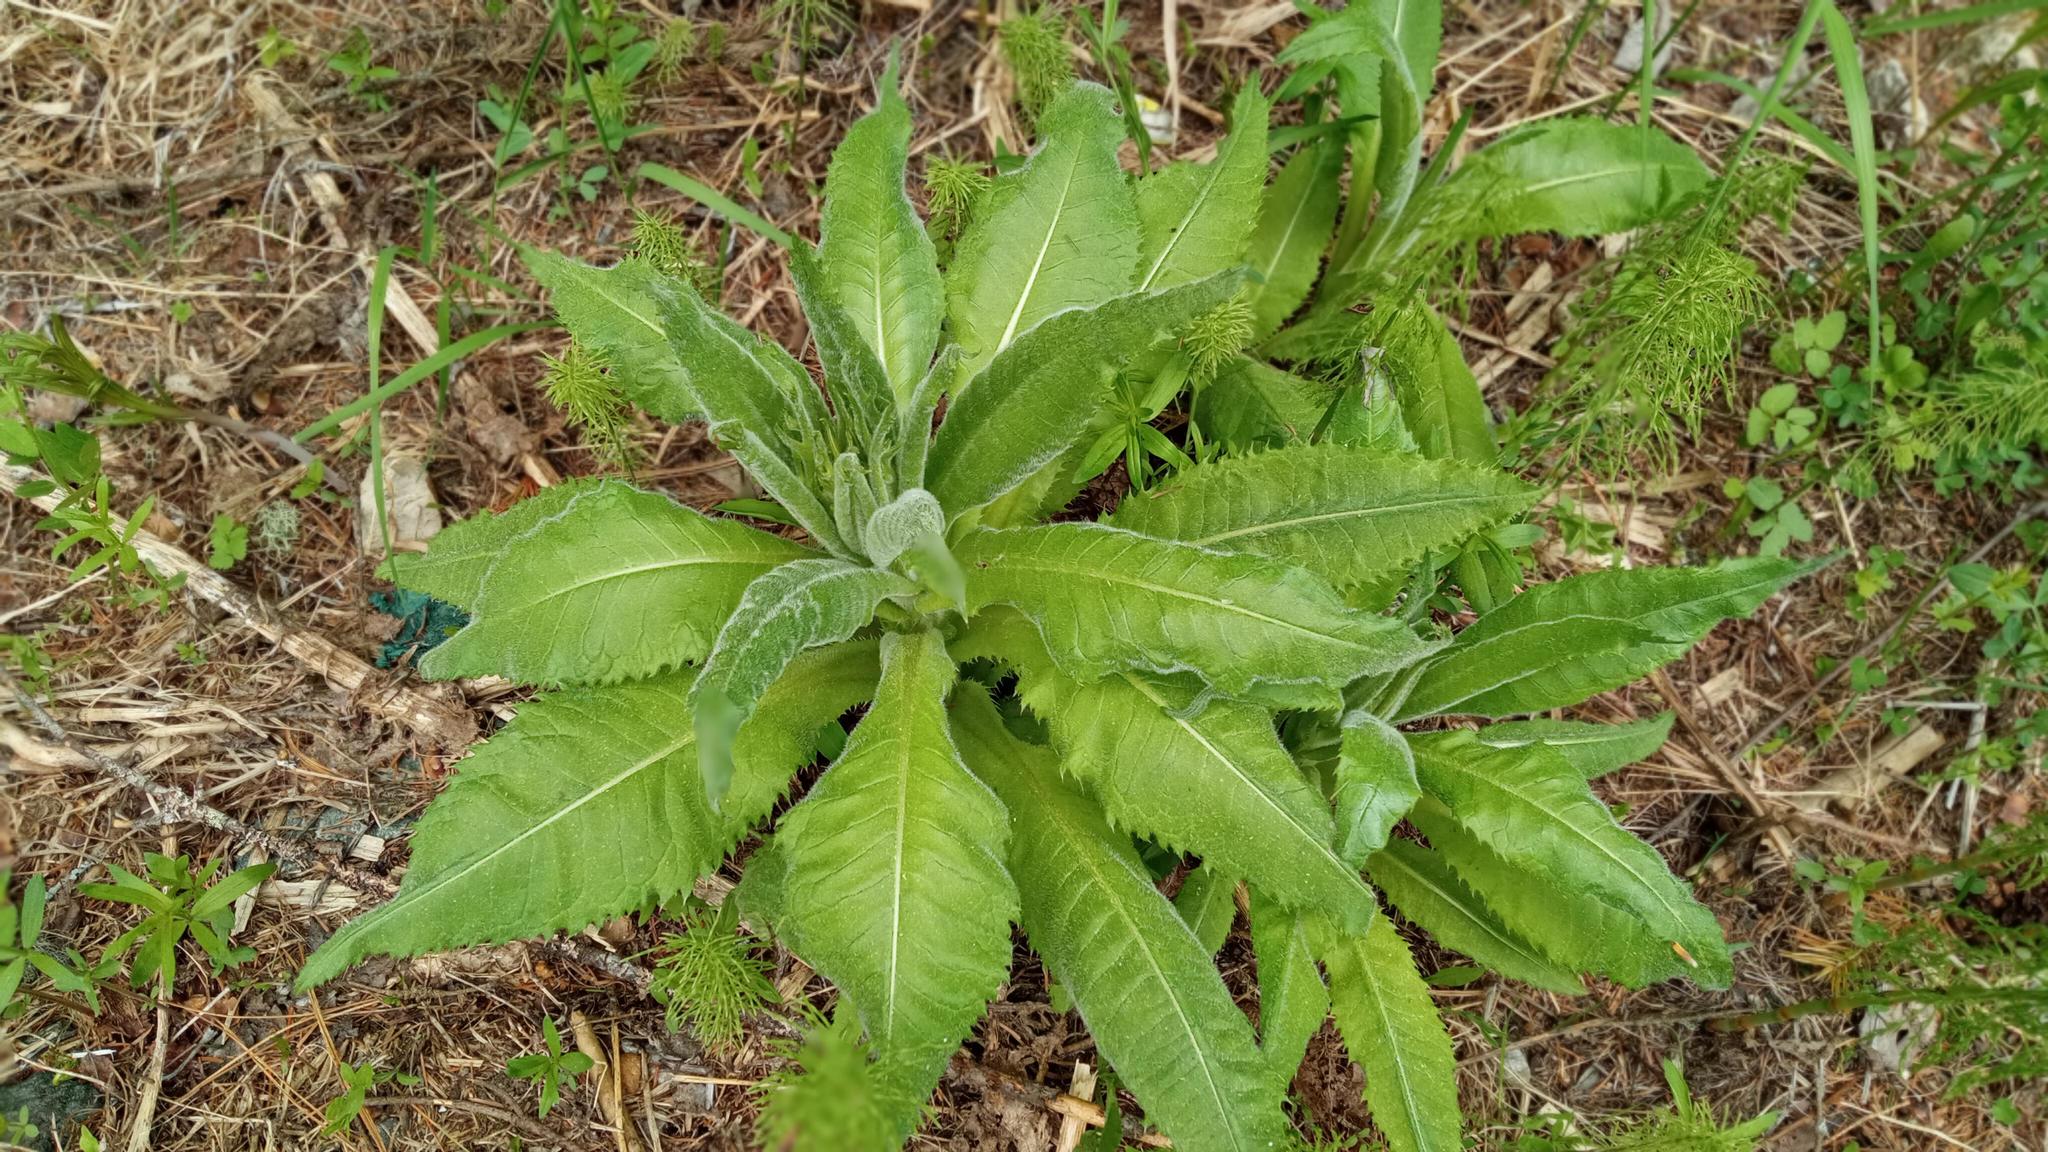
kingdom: Plantae
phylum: Tracheophyta
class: Magnoliopsida
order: Asterales
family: Asteraceae
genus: Cirsium
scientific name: Cirsium heterophyllum
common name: Melancholy thistle
